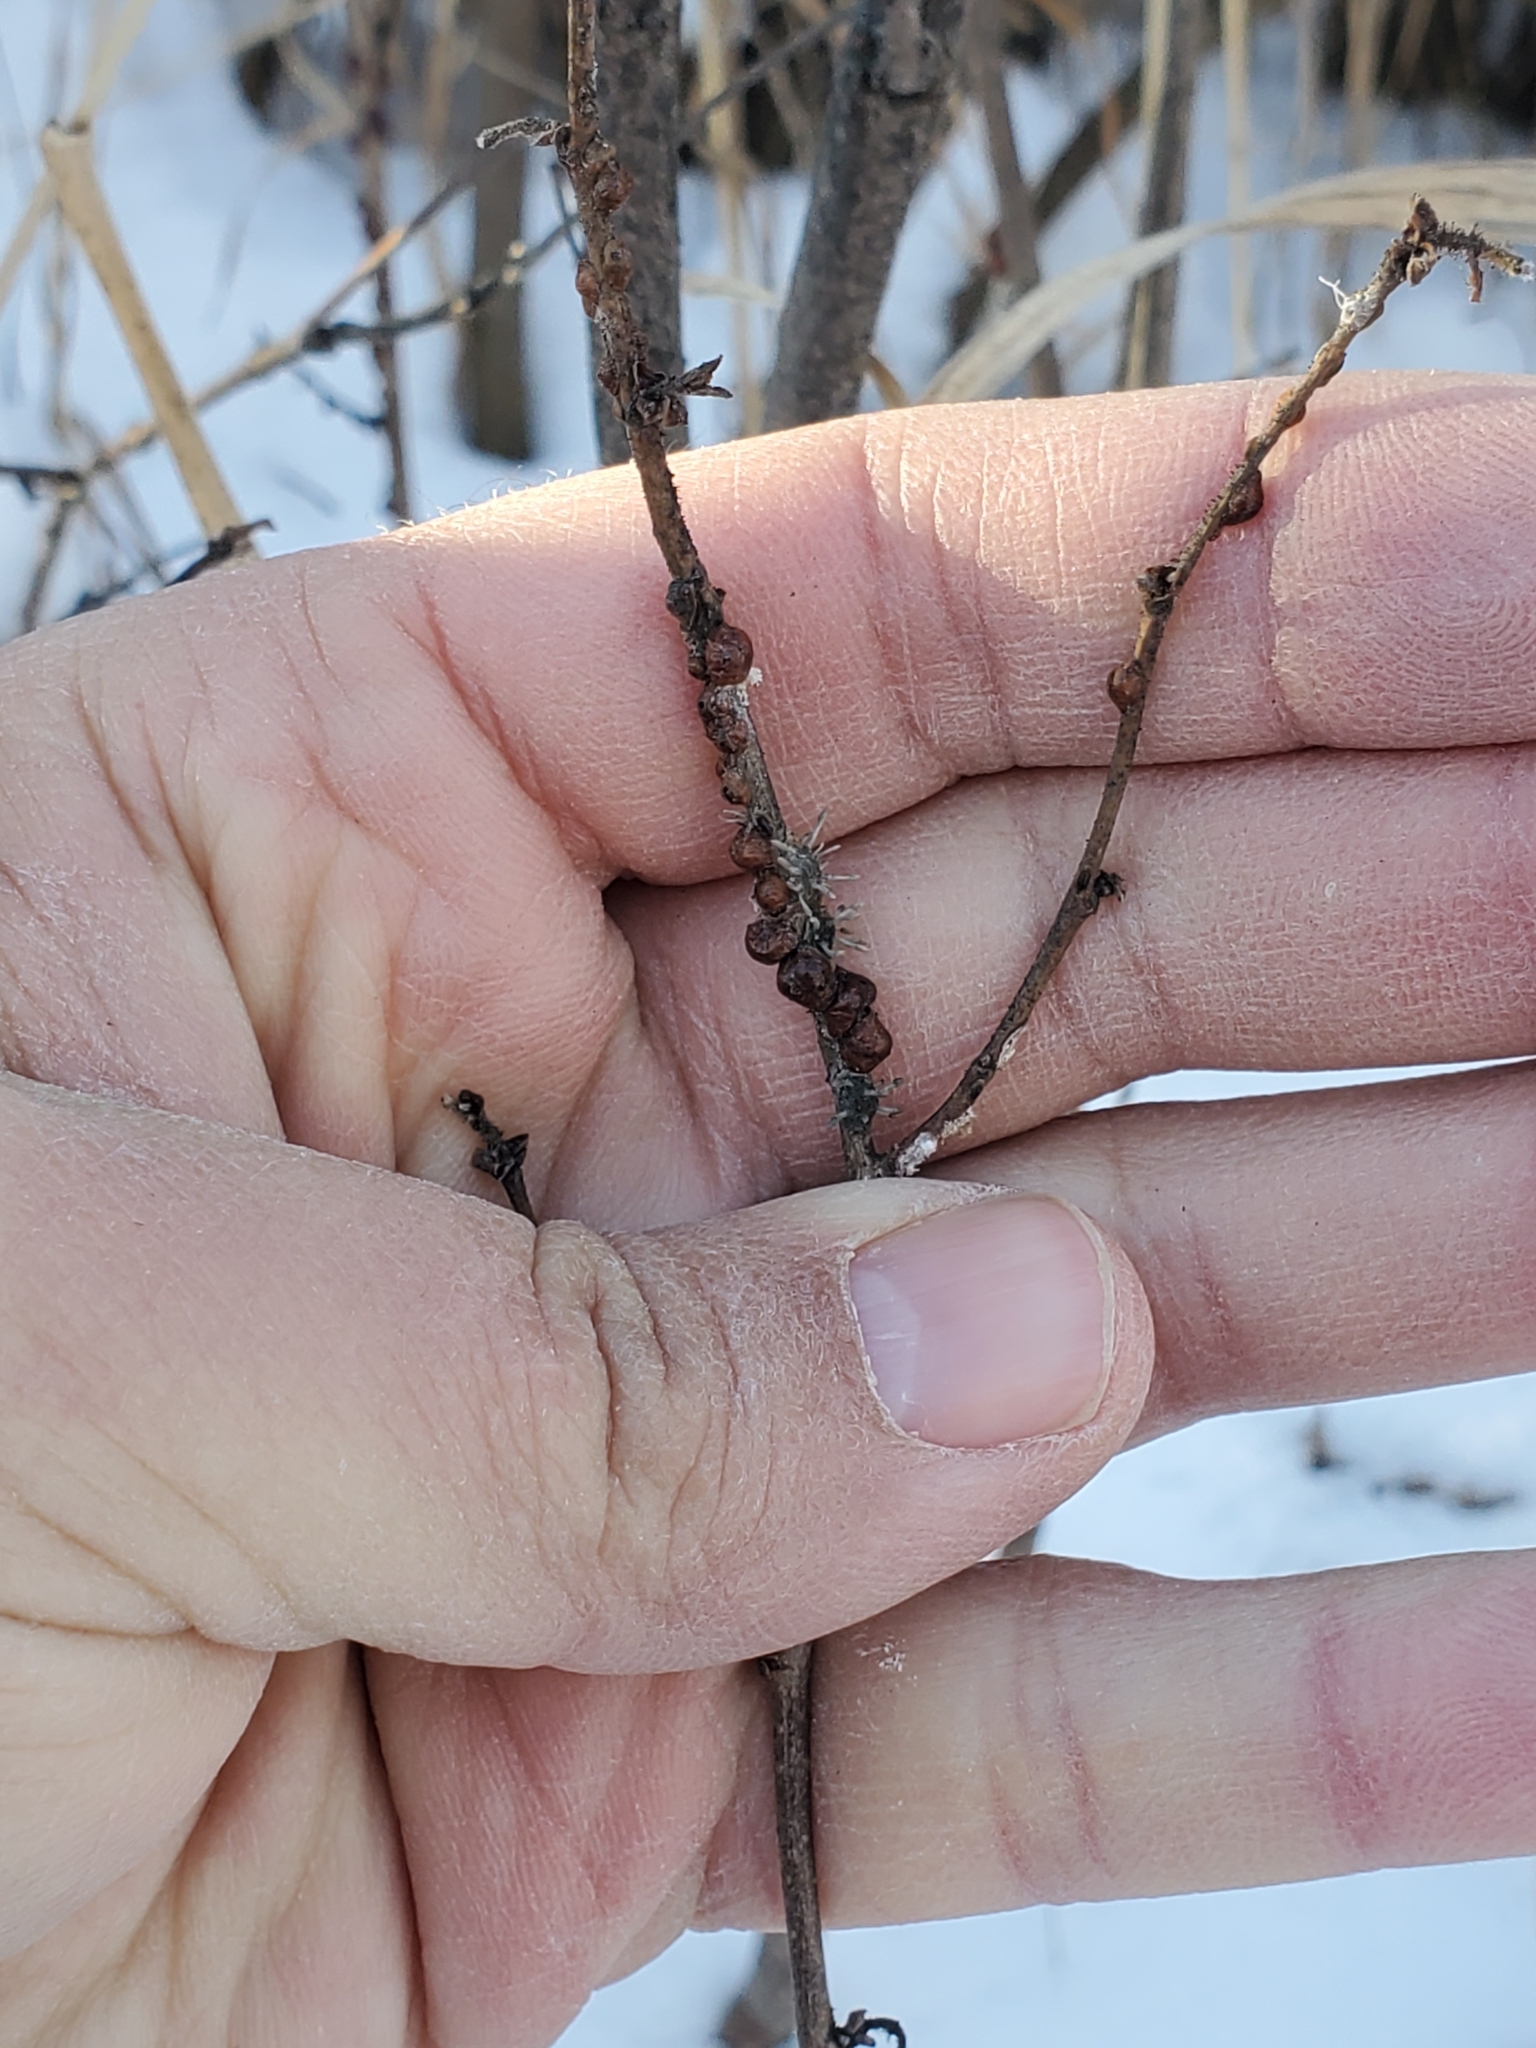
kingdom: Fungi
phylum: Ascomycota
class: Sordariomycetes
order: Hypocreales
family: Ophiocordycipitaceae
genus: Ophiocordyceps
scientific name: Ophiocordyceps clavulata
